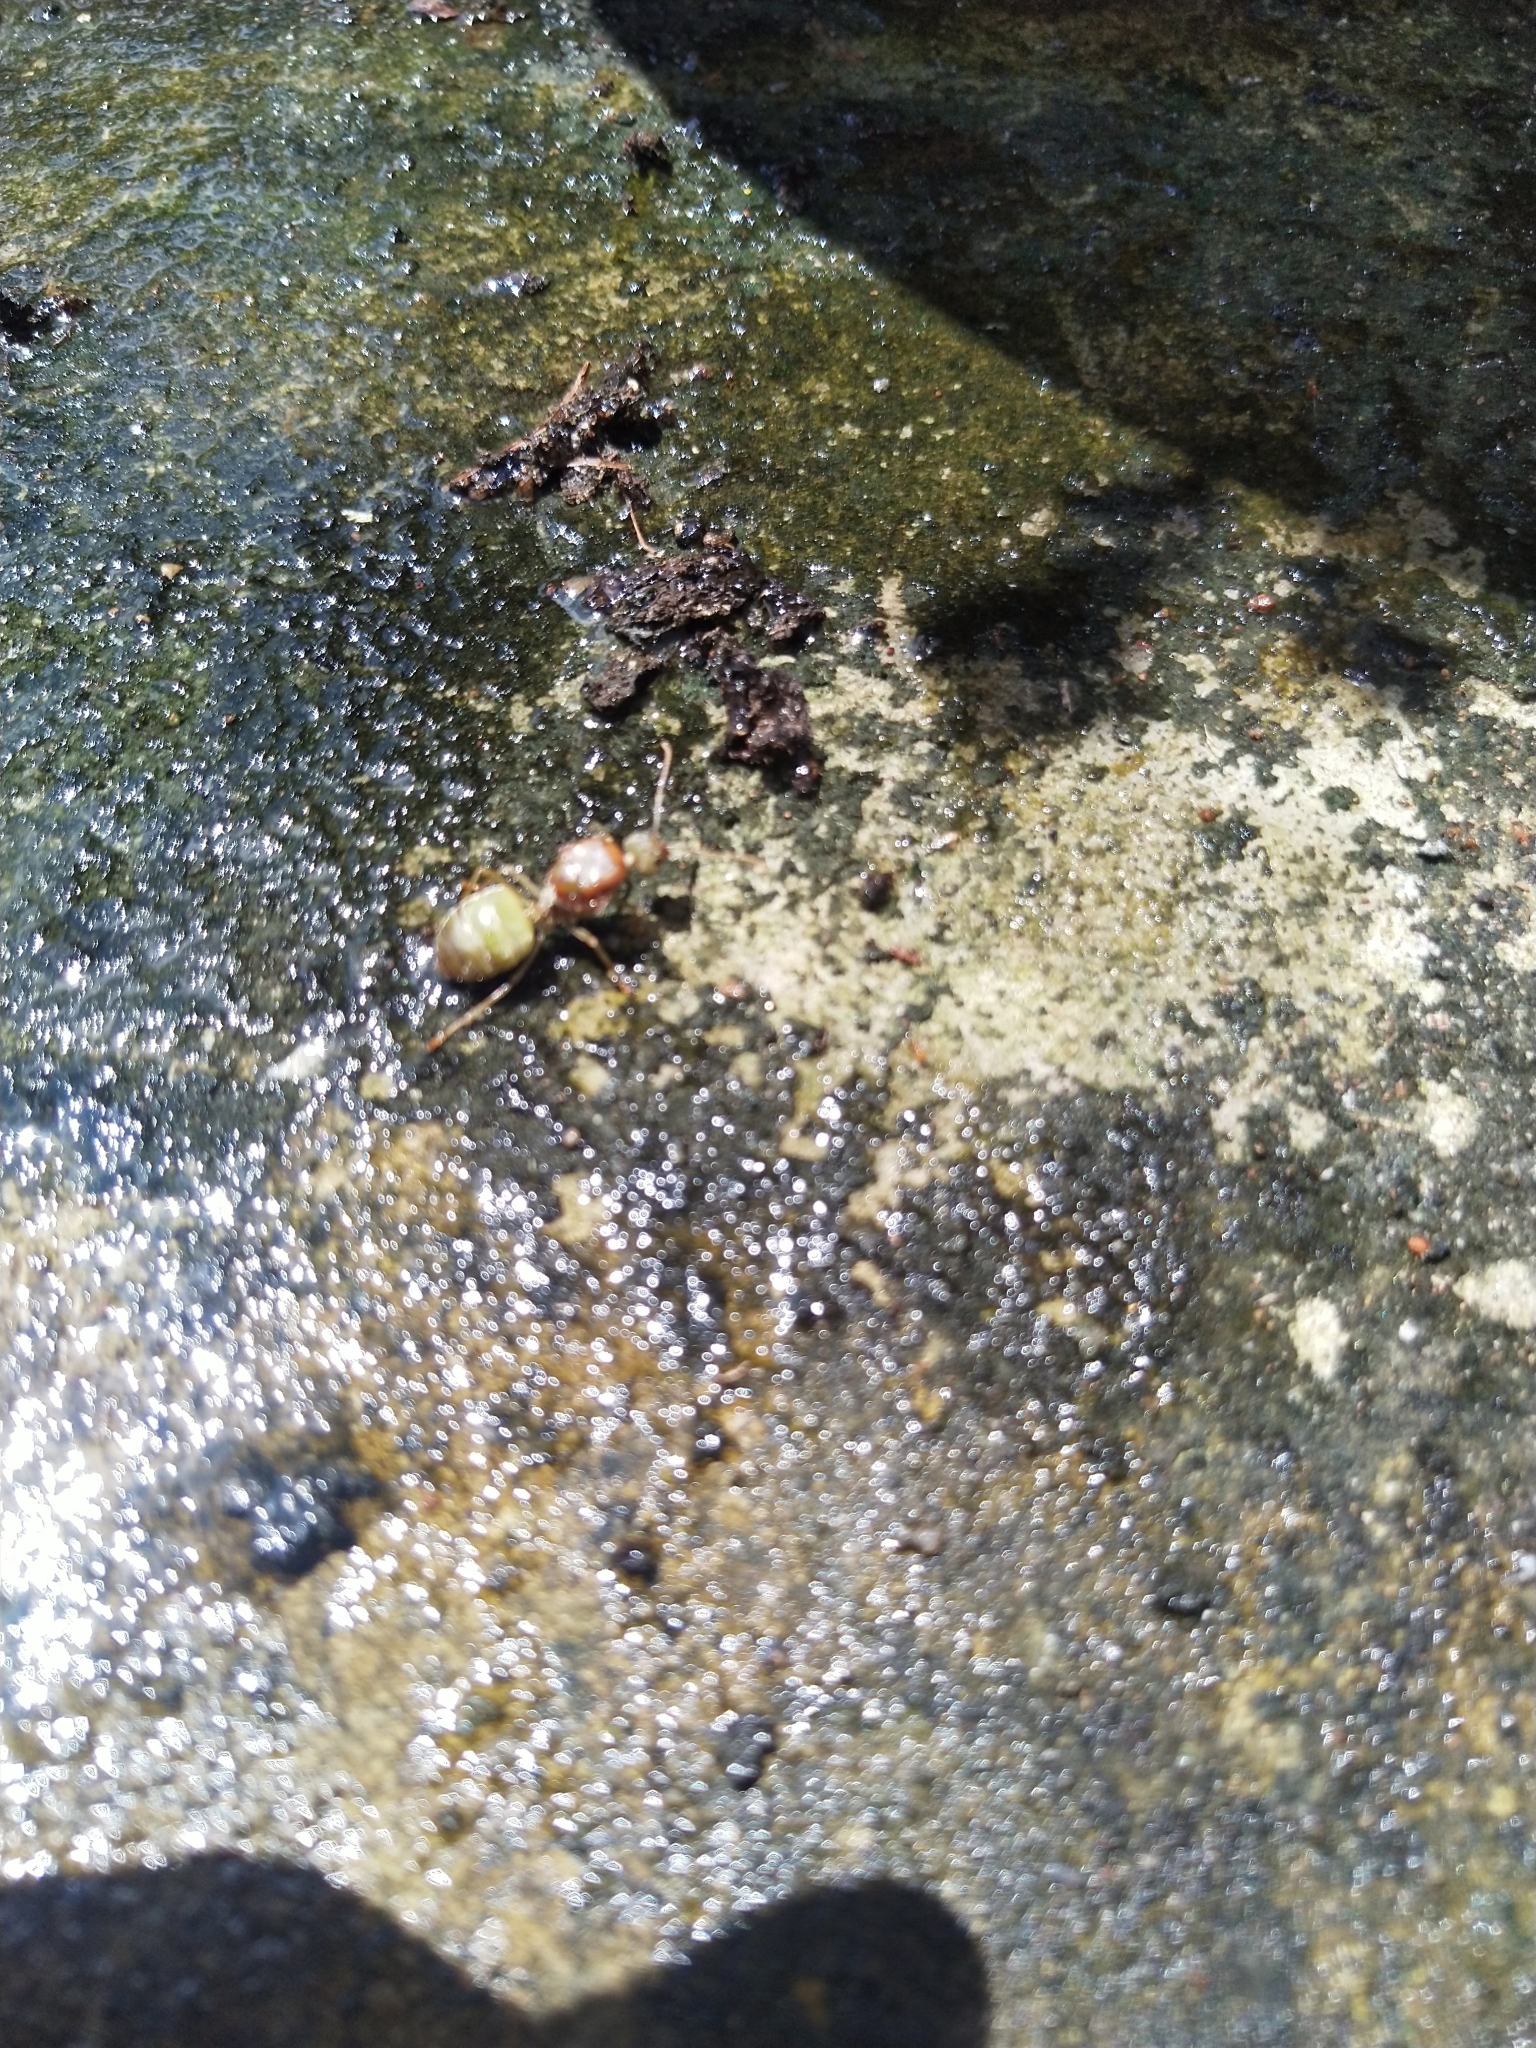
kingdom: Animalia
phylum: Arthropoda
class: Insecta
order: Hymenoptera
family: Formicidae
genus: Oecophylla
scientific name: Oecophylla smaragdina
